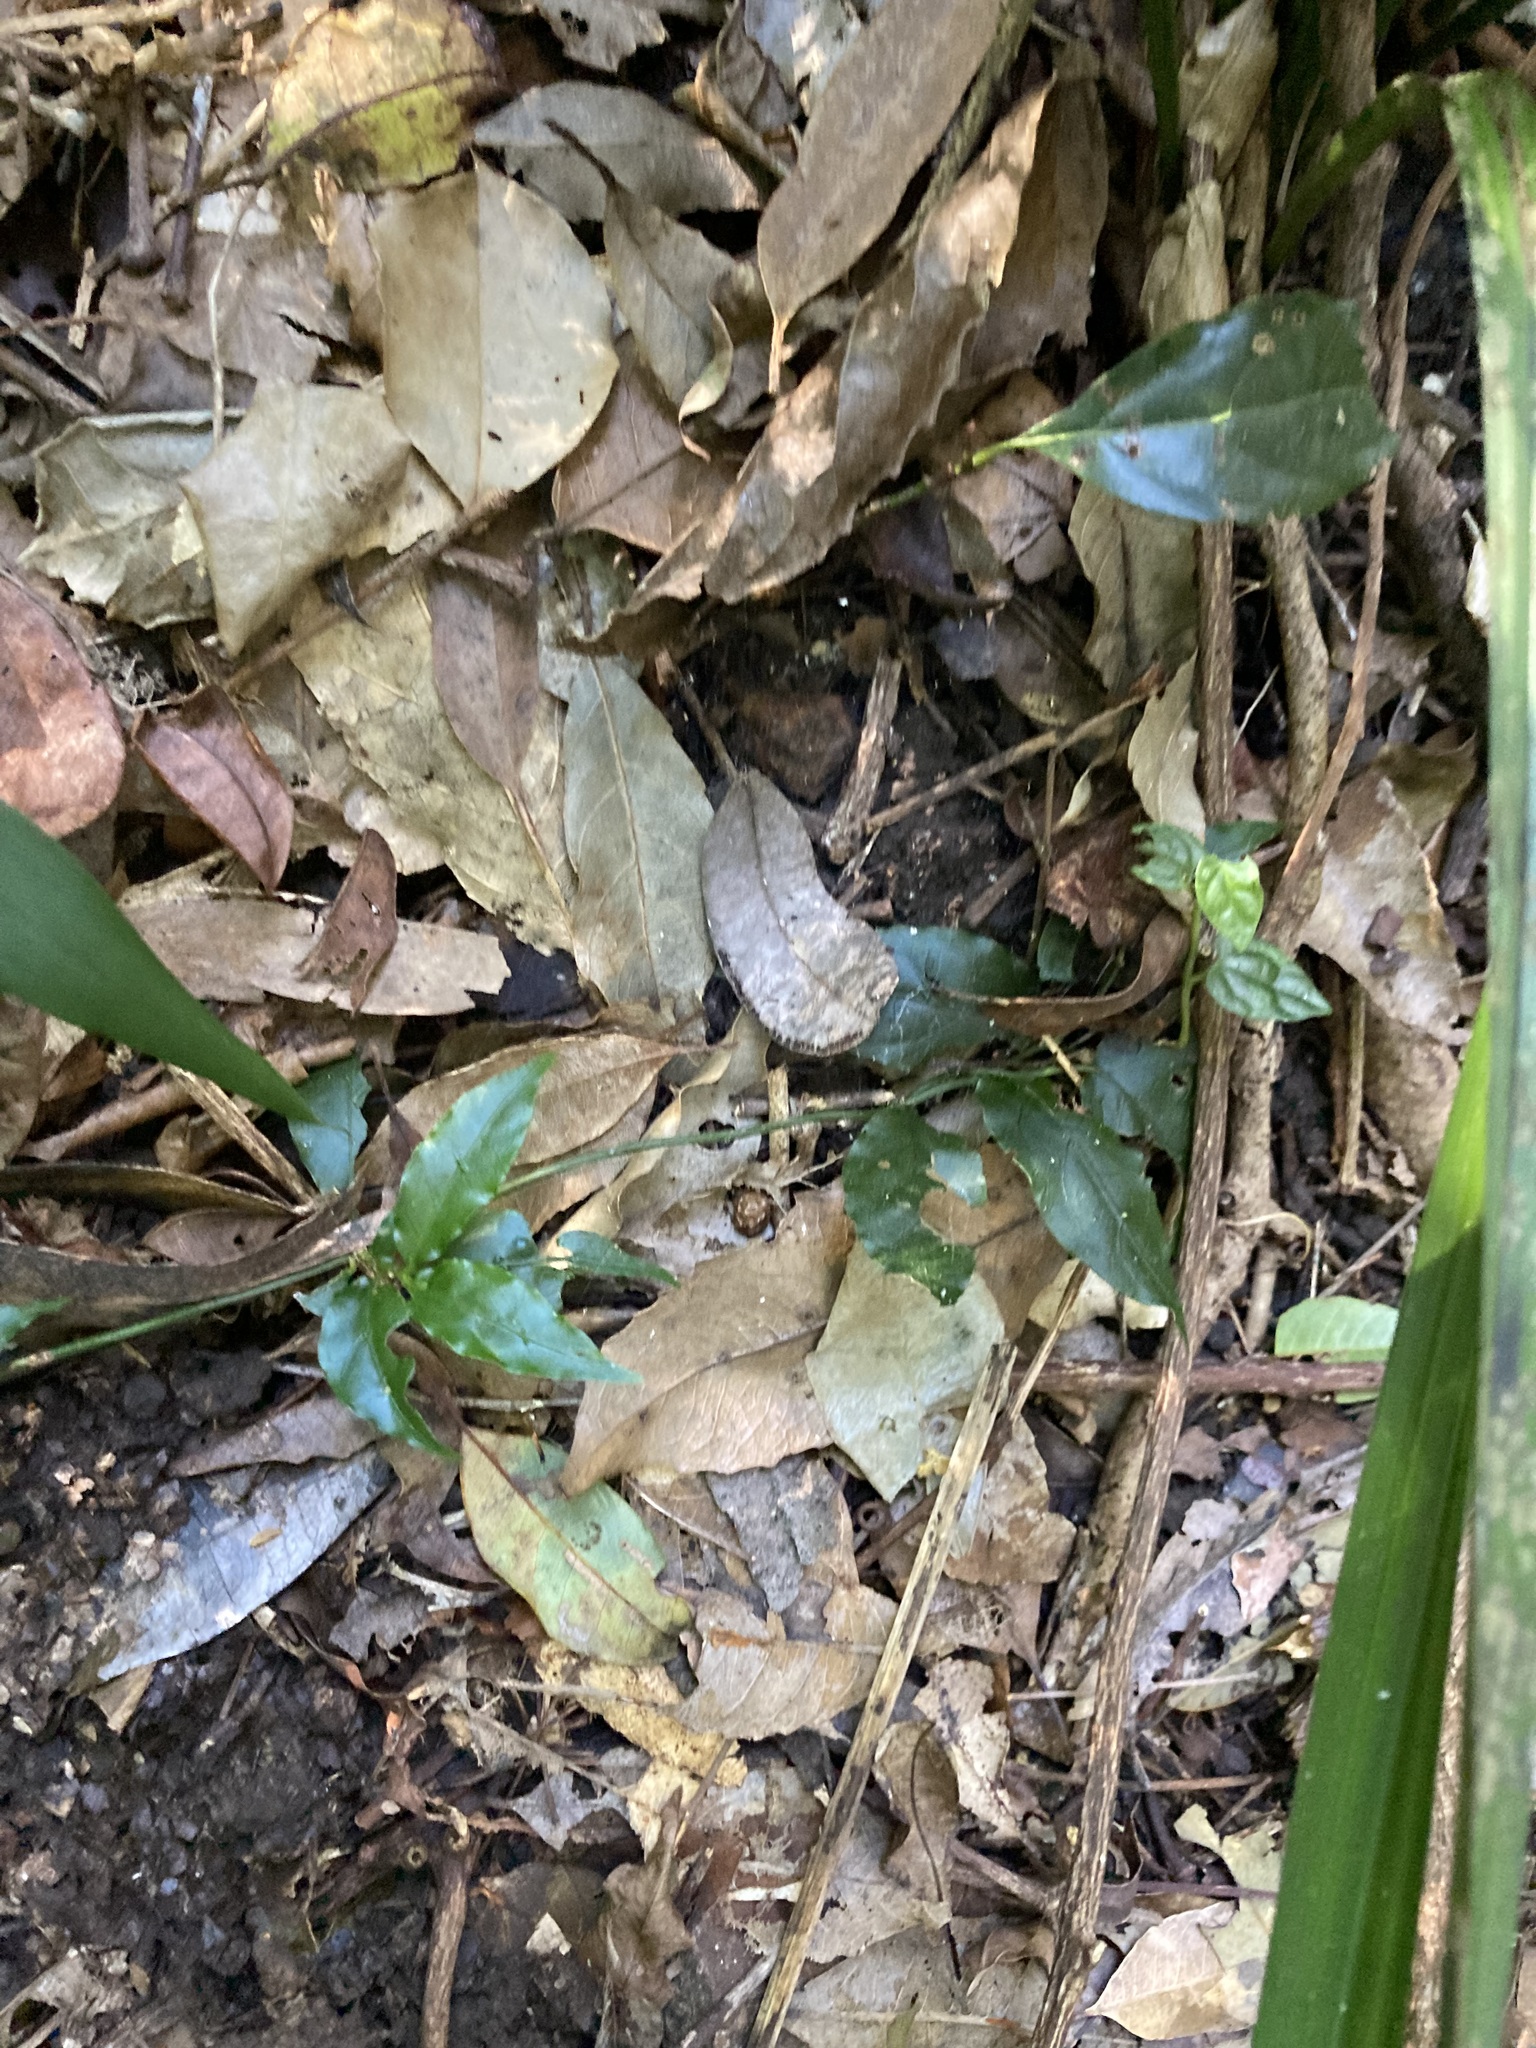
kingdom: Plantae
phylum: Tracheophyta
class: Magnoliopsida
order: Gentianales
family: Rubiaceae
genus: Gynochthodes
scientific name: Gynochthodes jasminoides
